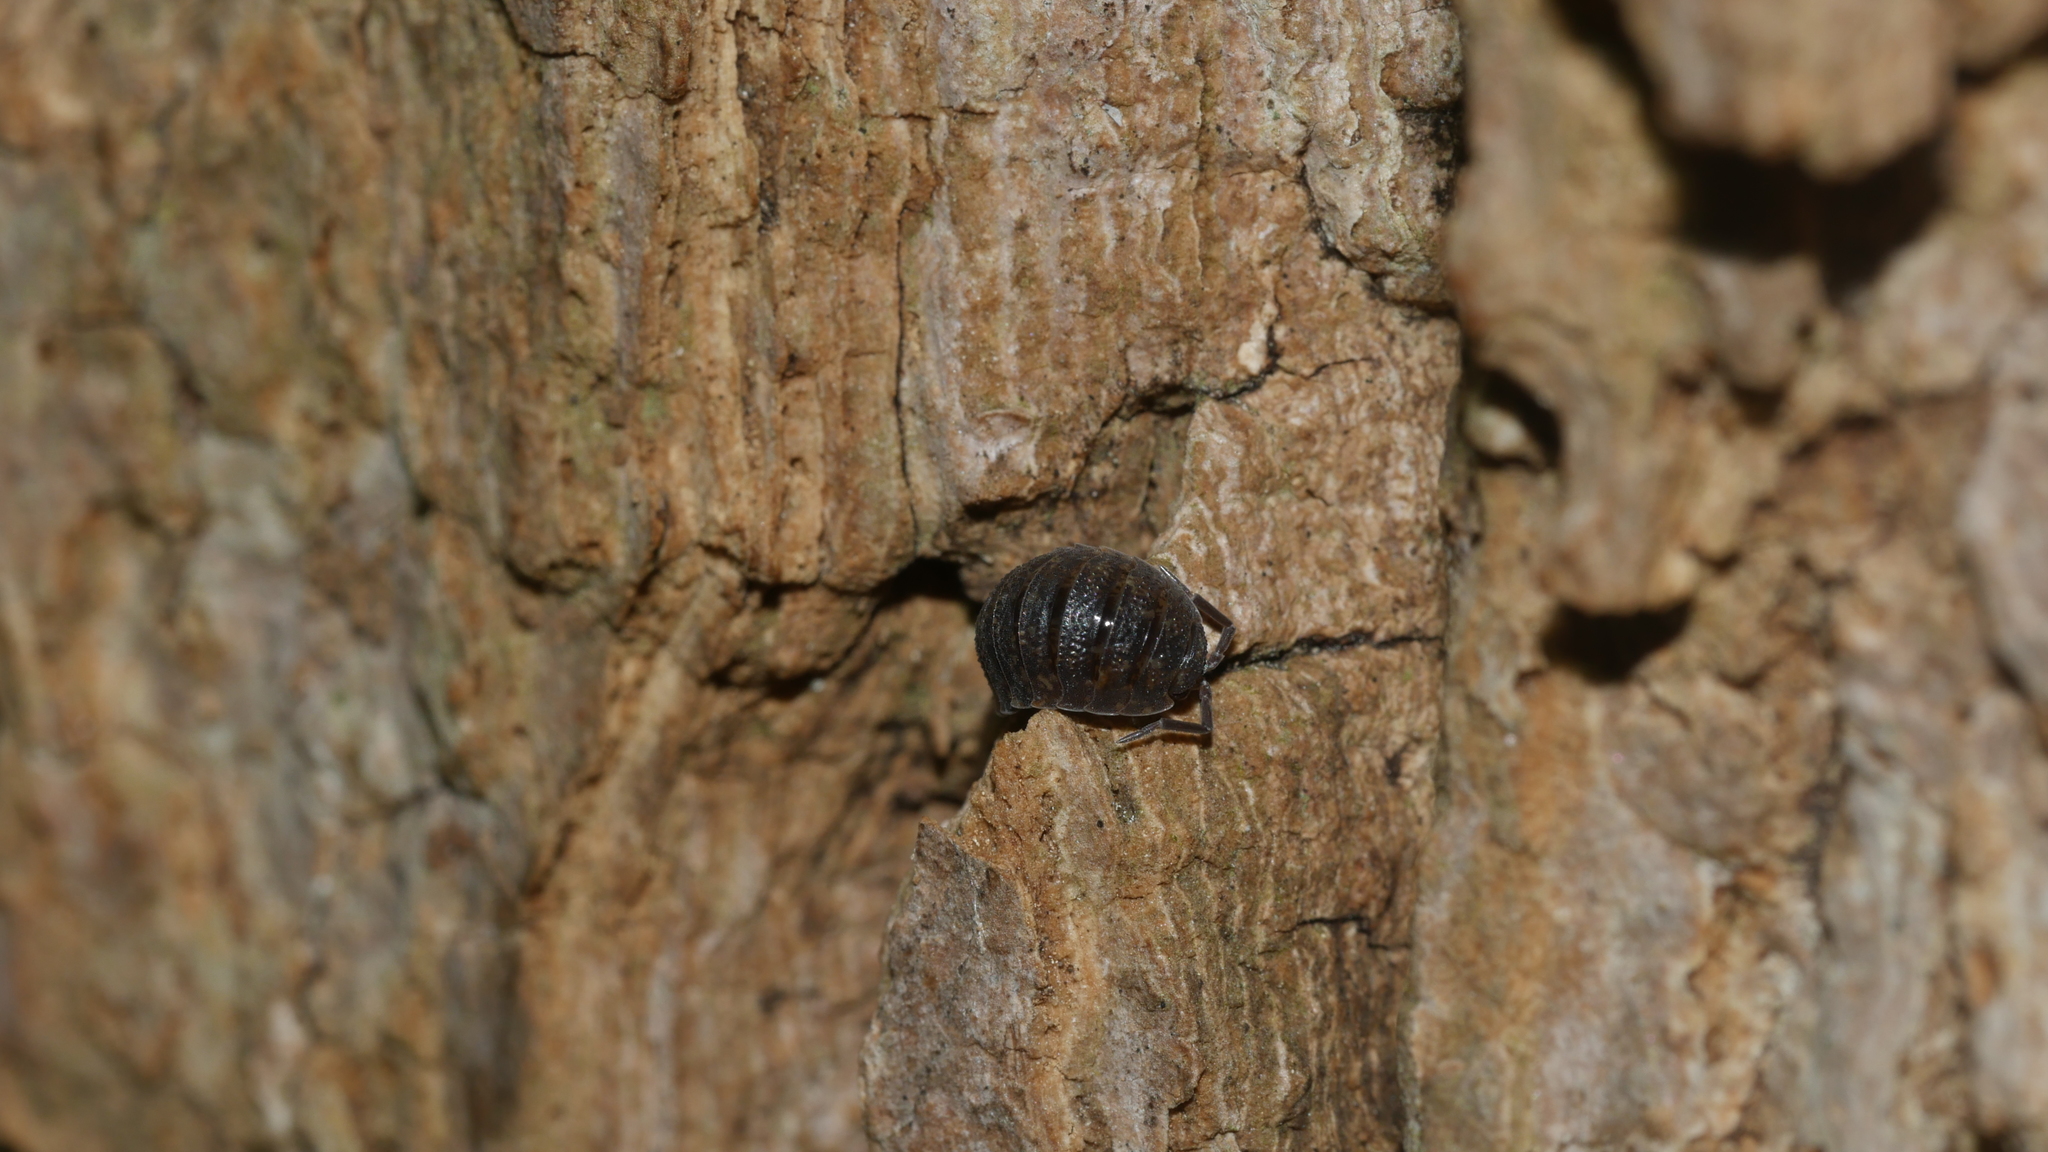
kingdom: Animalia
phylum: Arthropoda
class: Malacostraca
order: Isopoda
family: Porcellionidae
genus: Porcellio
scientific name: Porcellio scaber
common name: Common rough woodlouse
